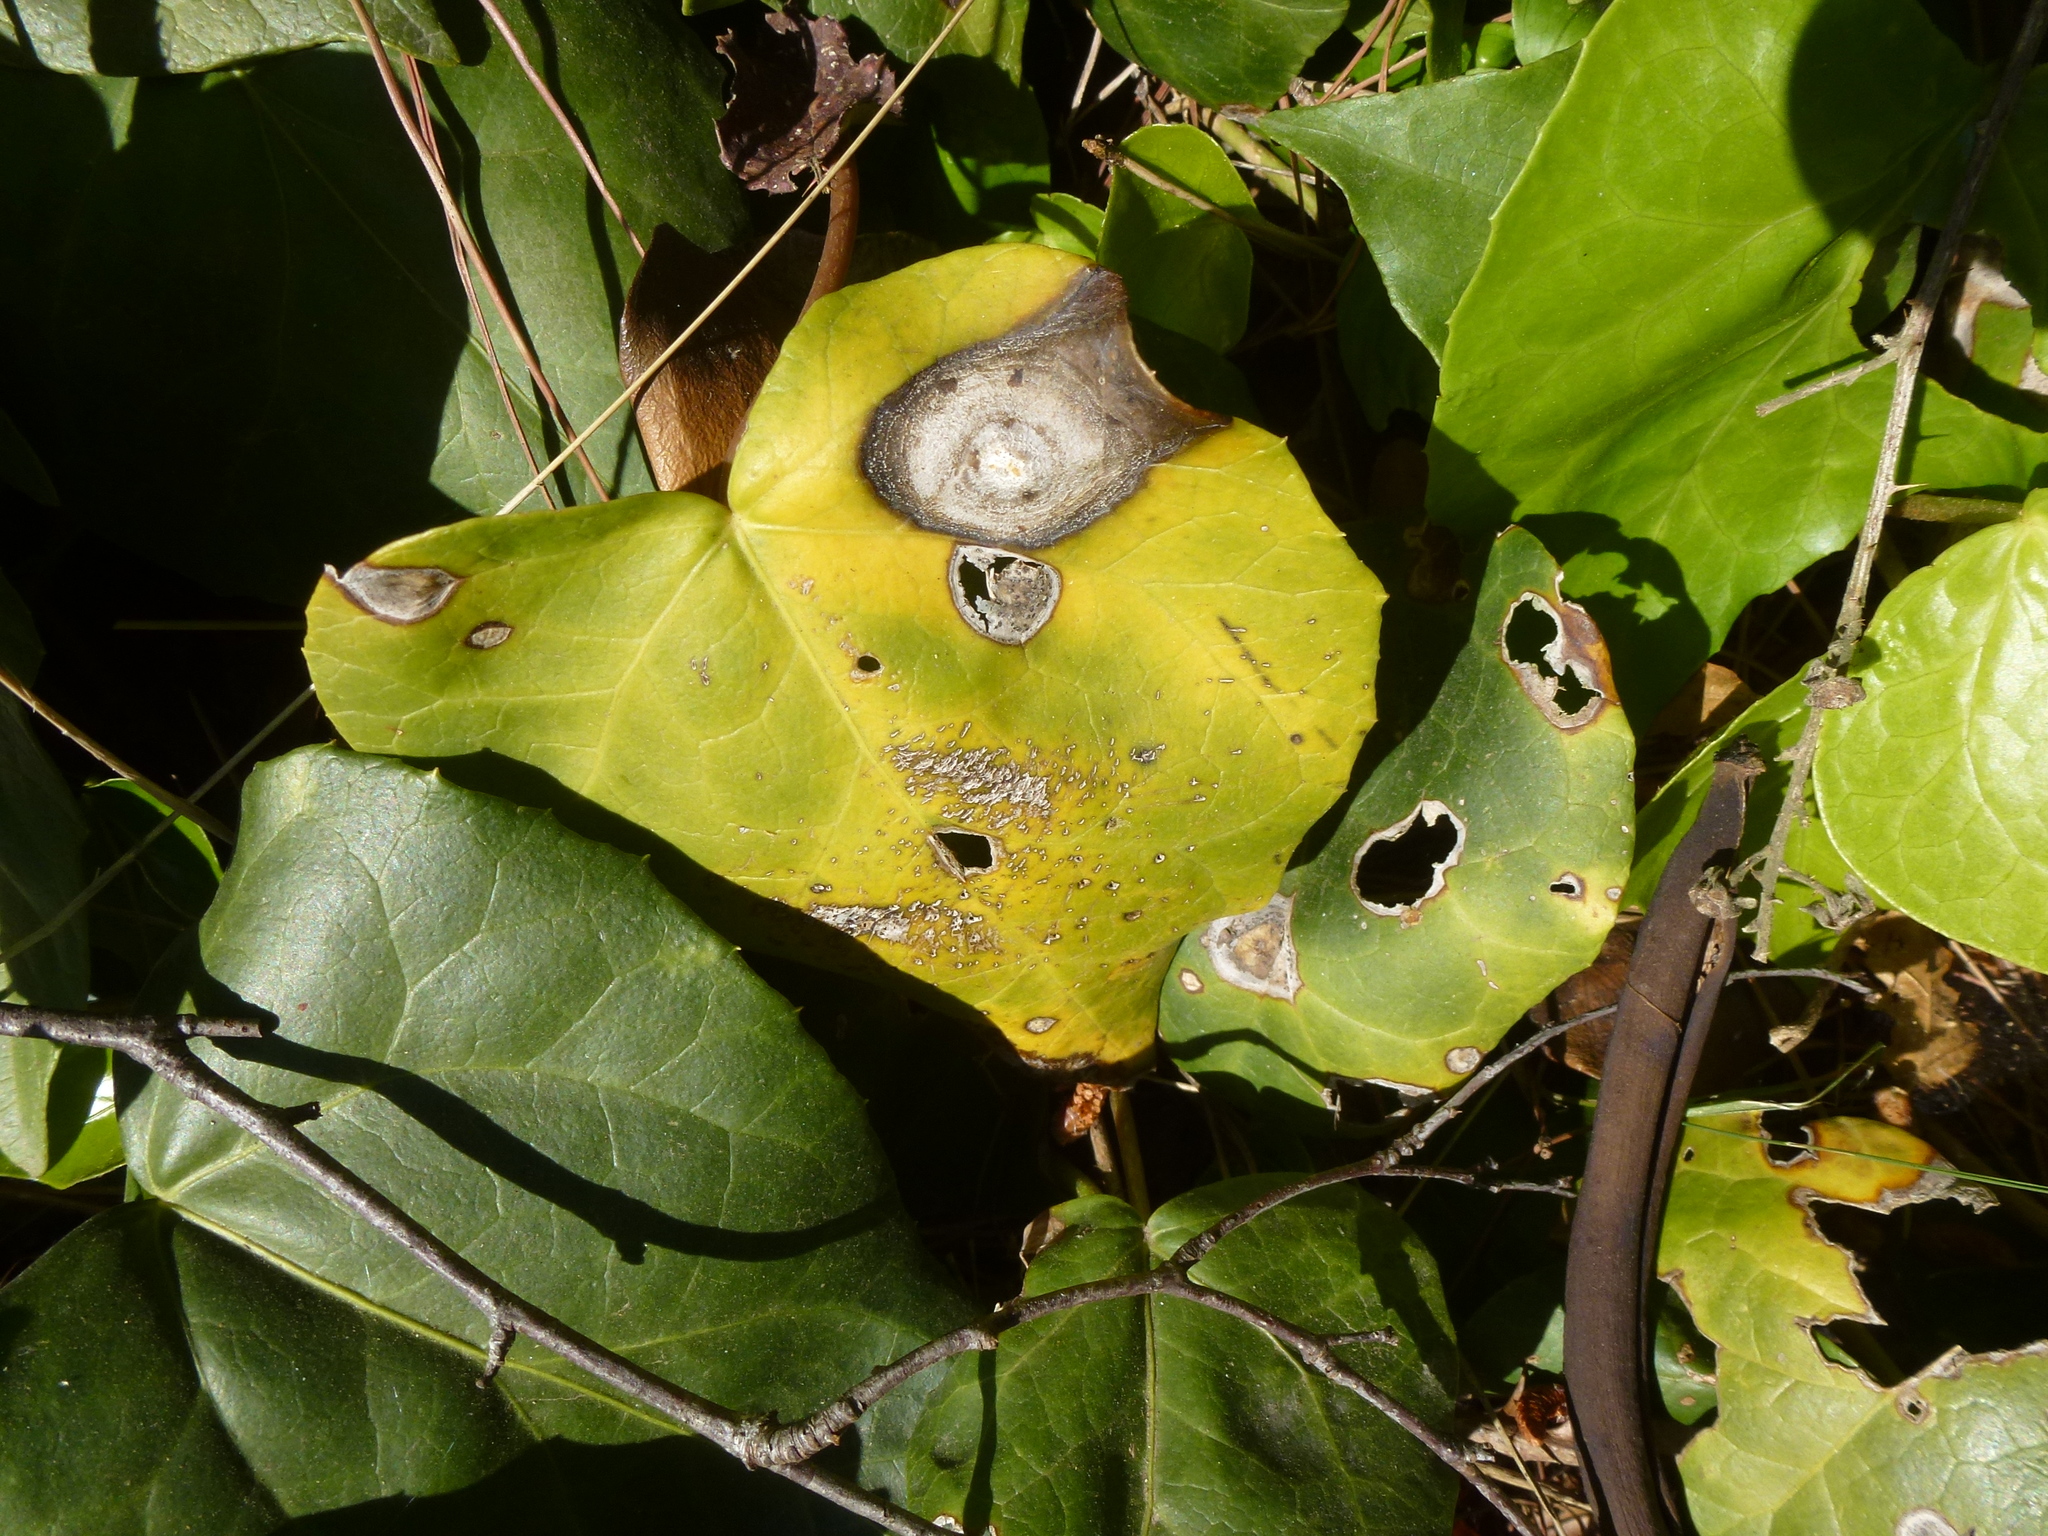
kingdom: Fungi
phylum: Ascomycota
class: Dothideomycetes
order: Pleosporales
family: Didymellaceae
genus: Boeremia
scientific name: Boeremia hedericola
